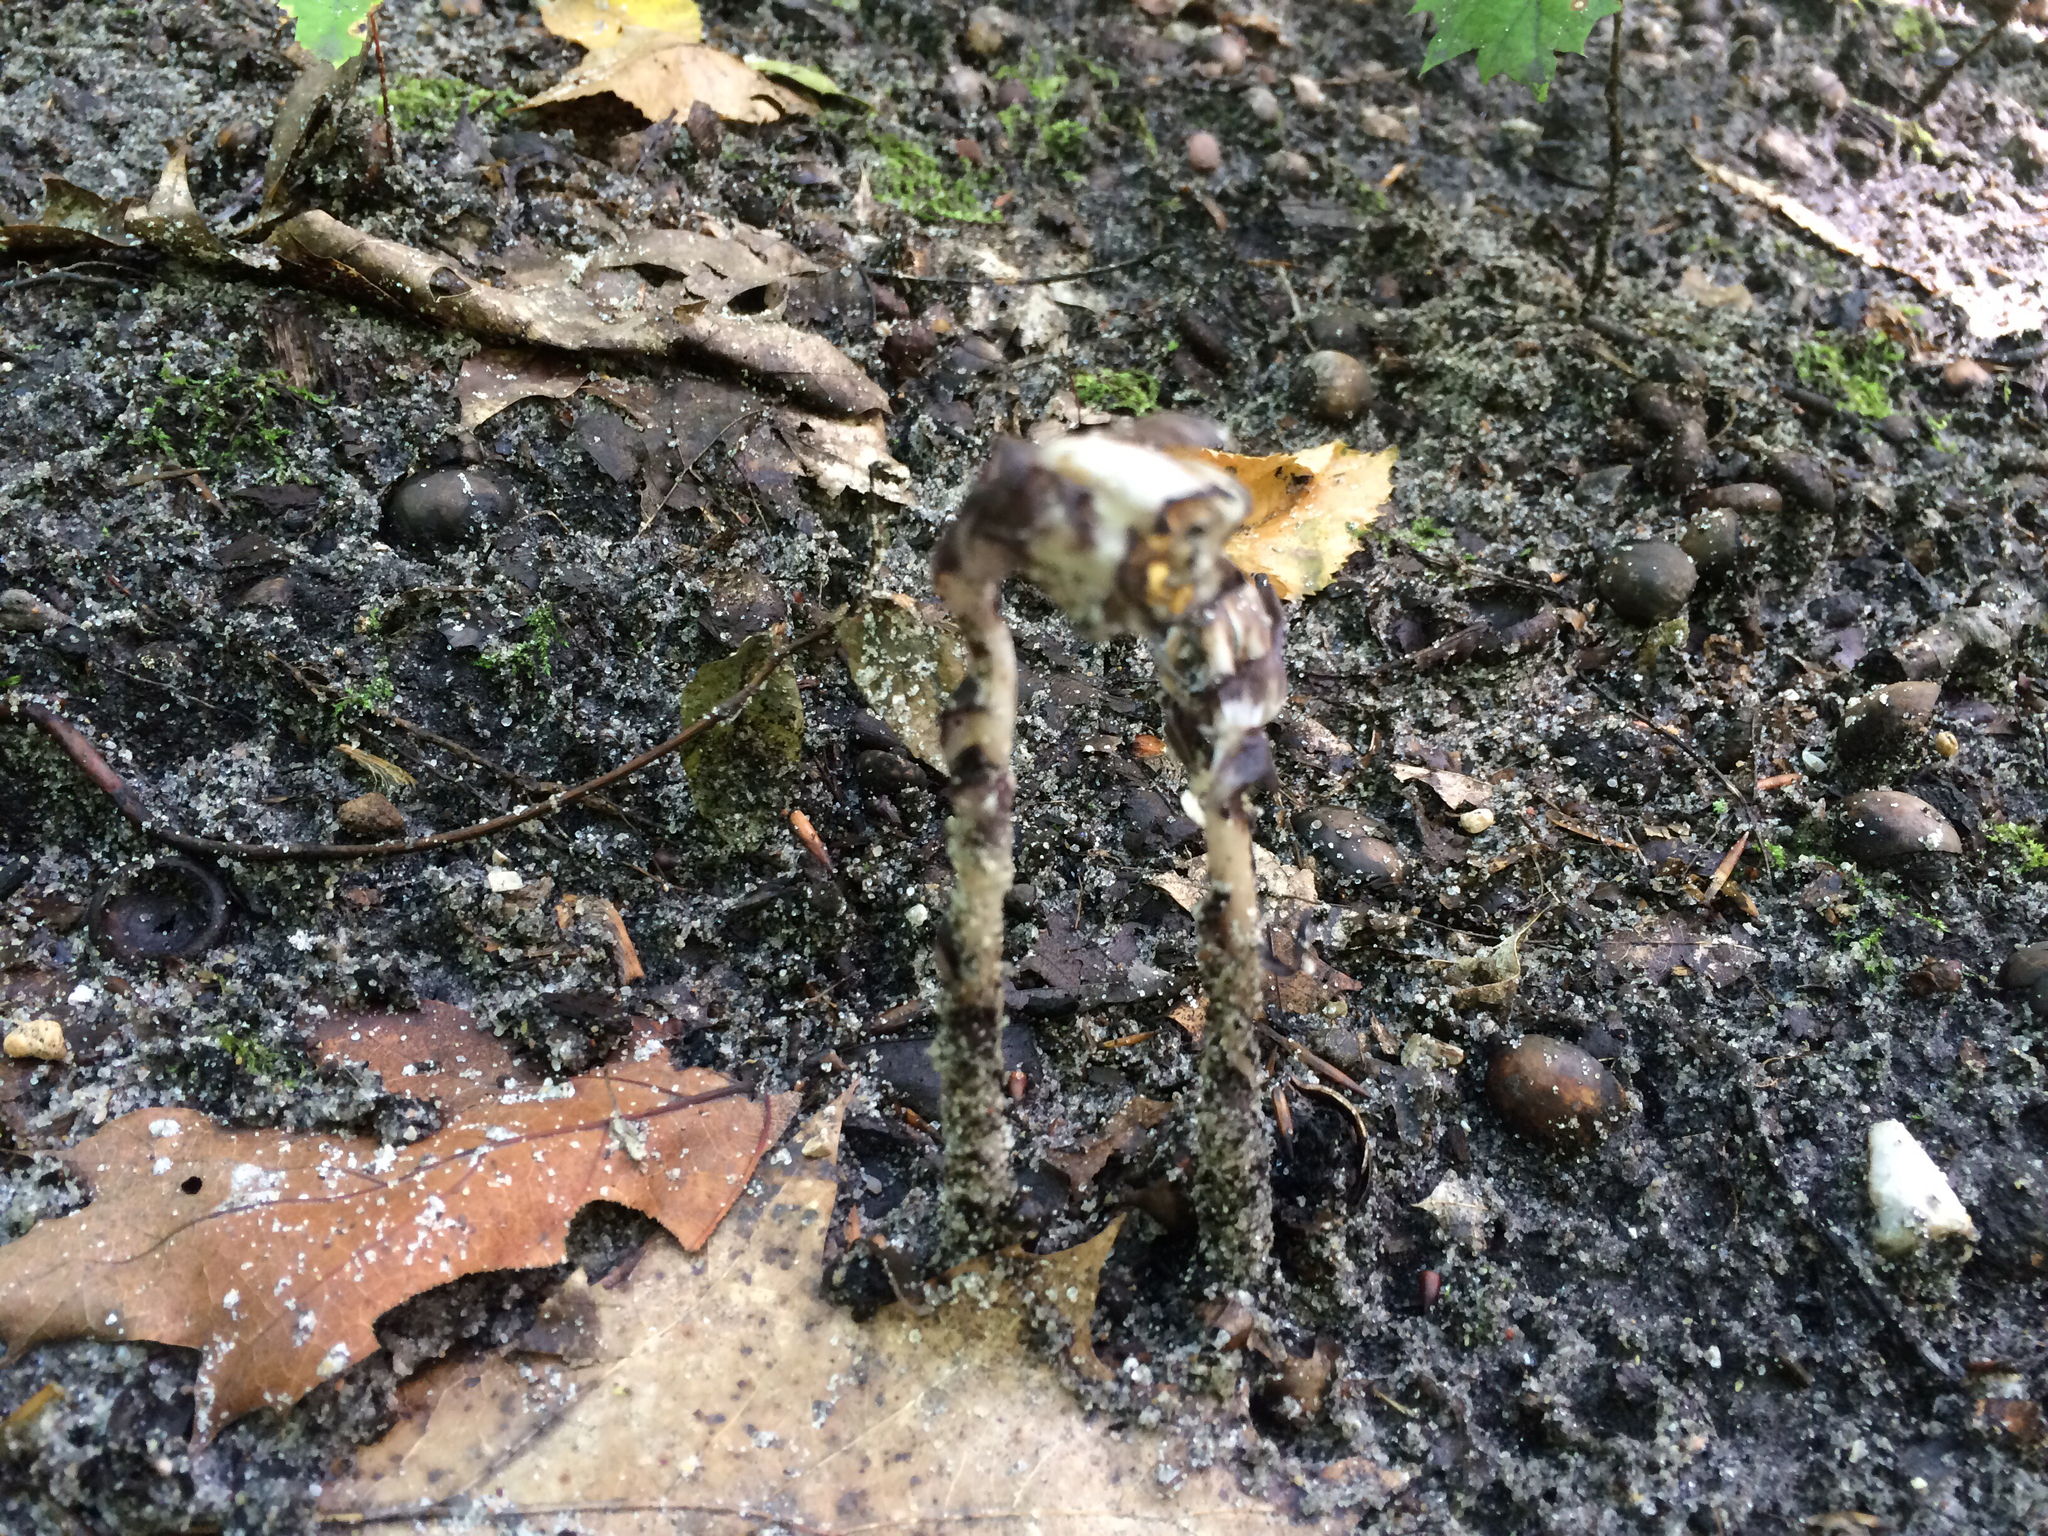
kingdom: Plantae
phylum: Tracheophyta
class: Magnoliopsida
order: Ericales
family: Ericaceae
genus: Monotropa
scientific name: Monotropa uniflora
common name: Convulsion root
